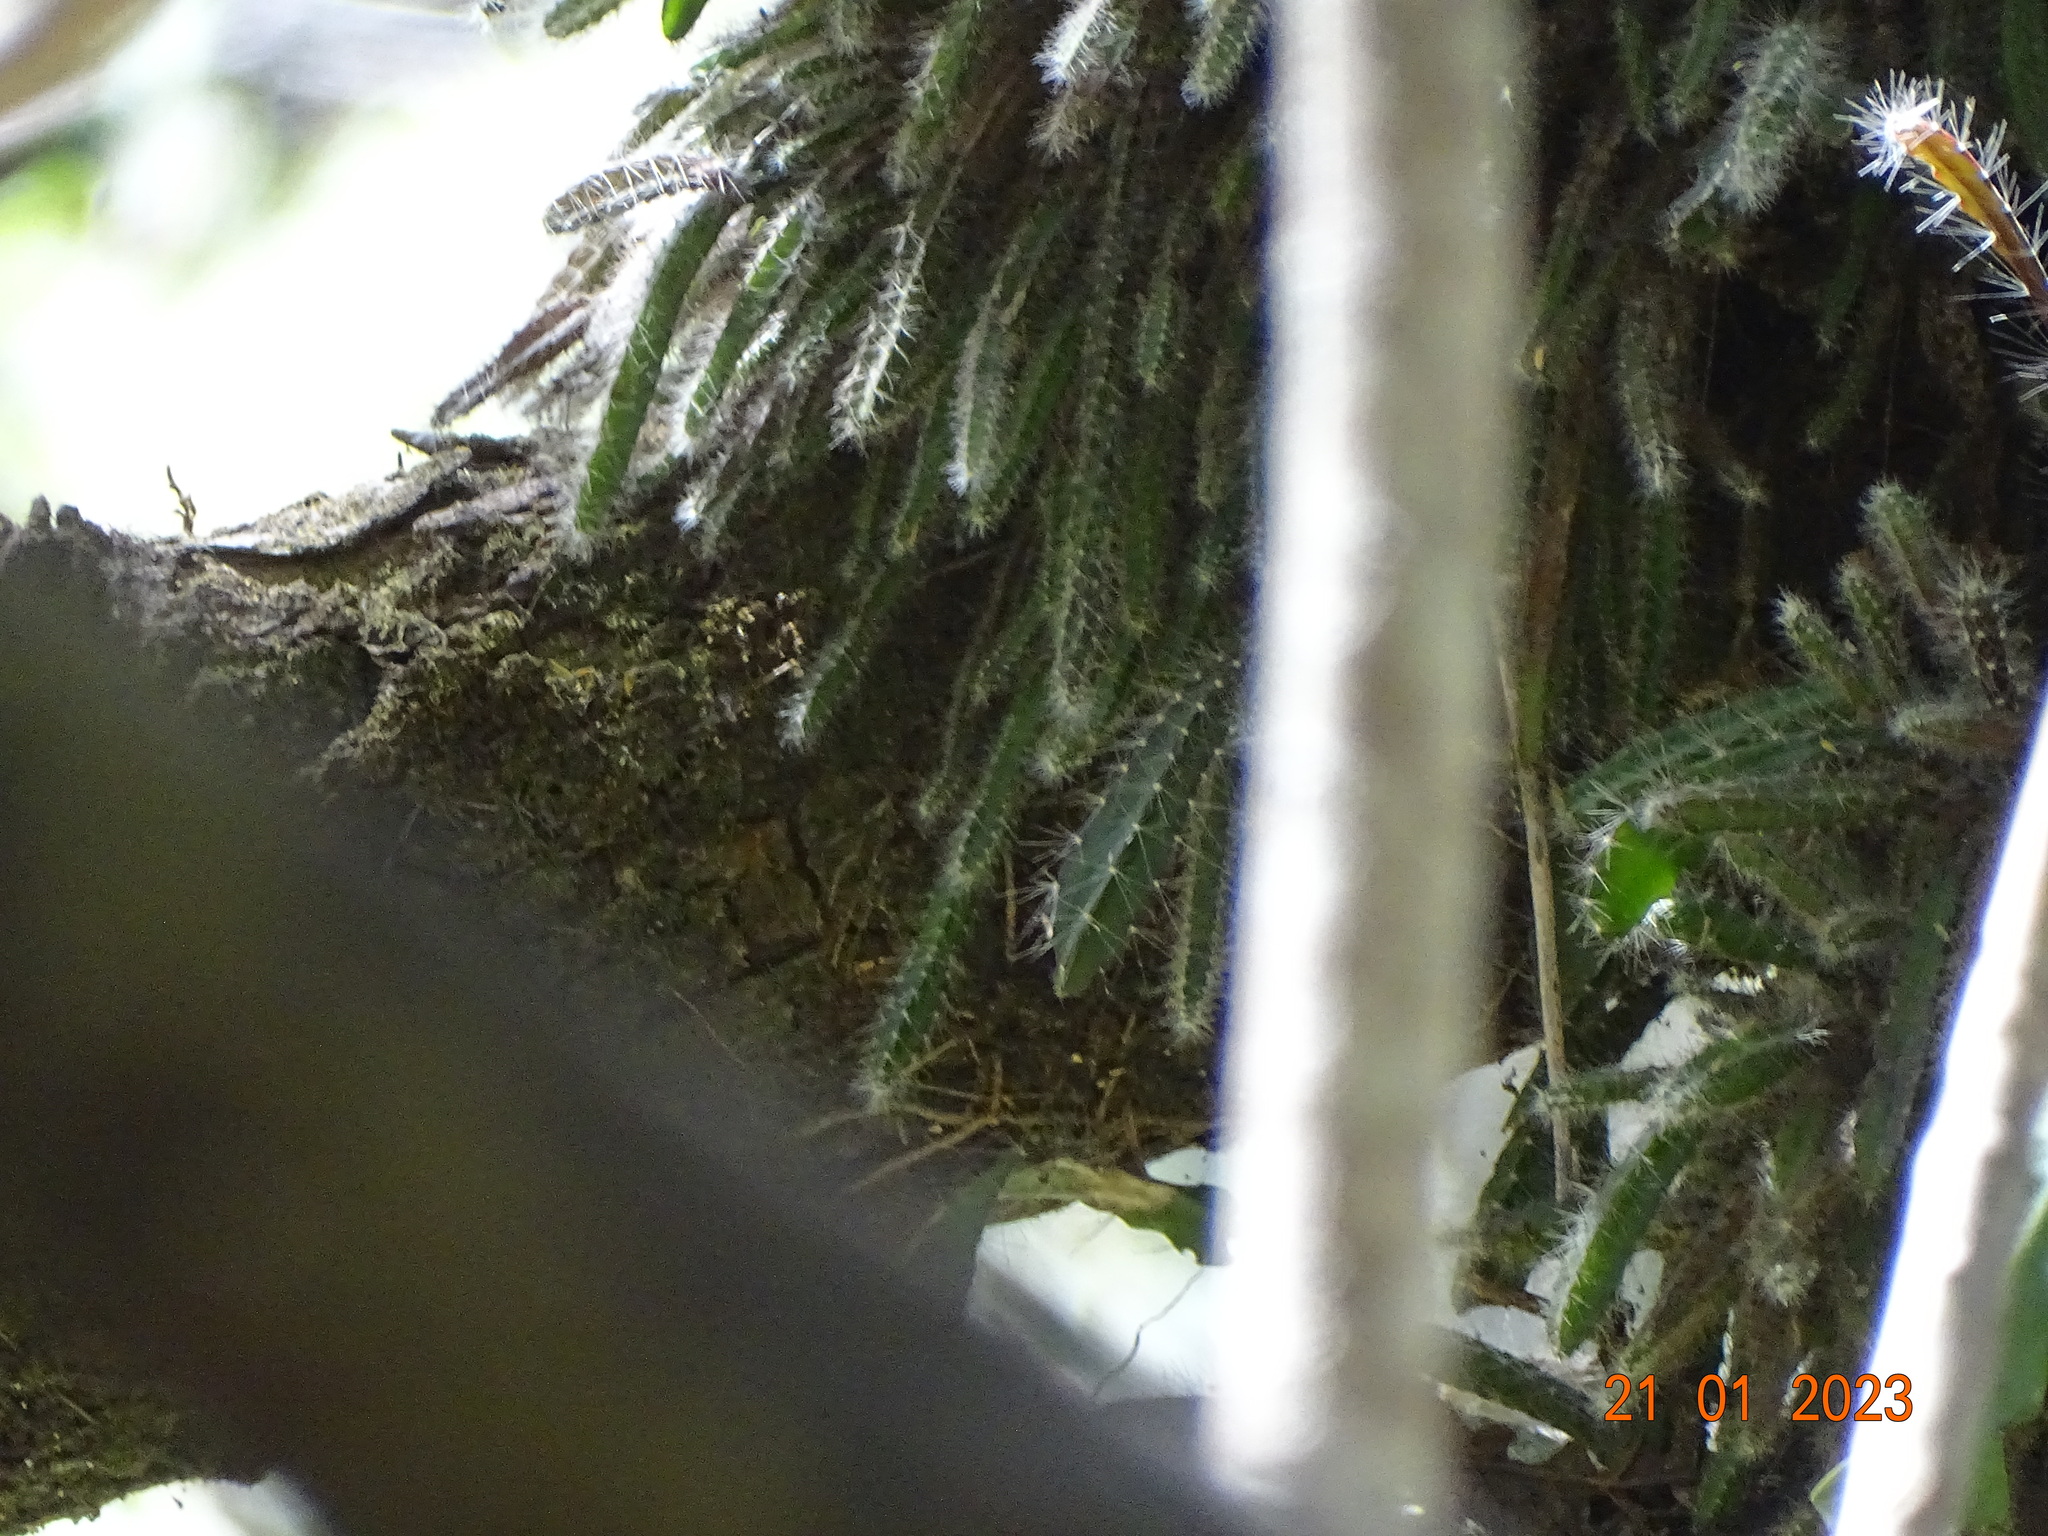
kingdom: Plantae
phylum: Tracheophyta
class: Magnoliopsida
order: Caryophyllales
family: Cactaceae
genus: Disocactus
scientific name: Disocactus speciosus
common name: Sun cereus
